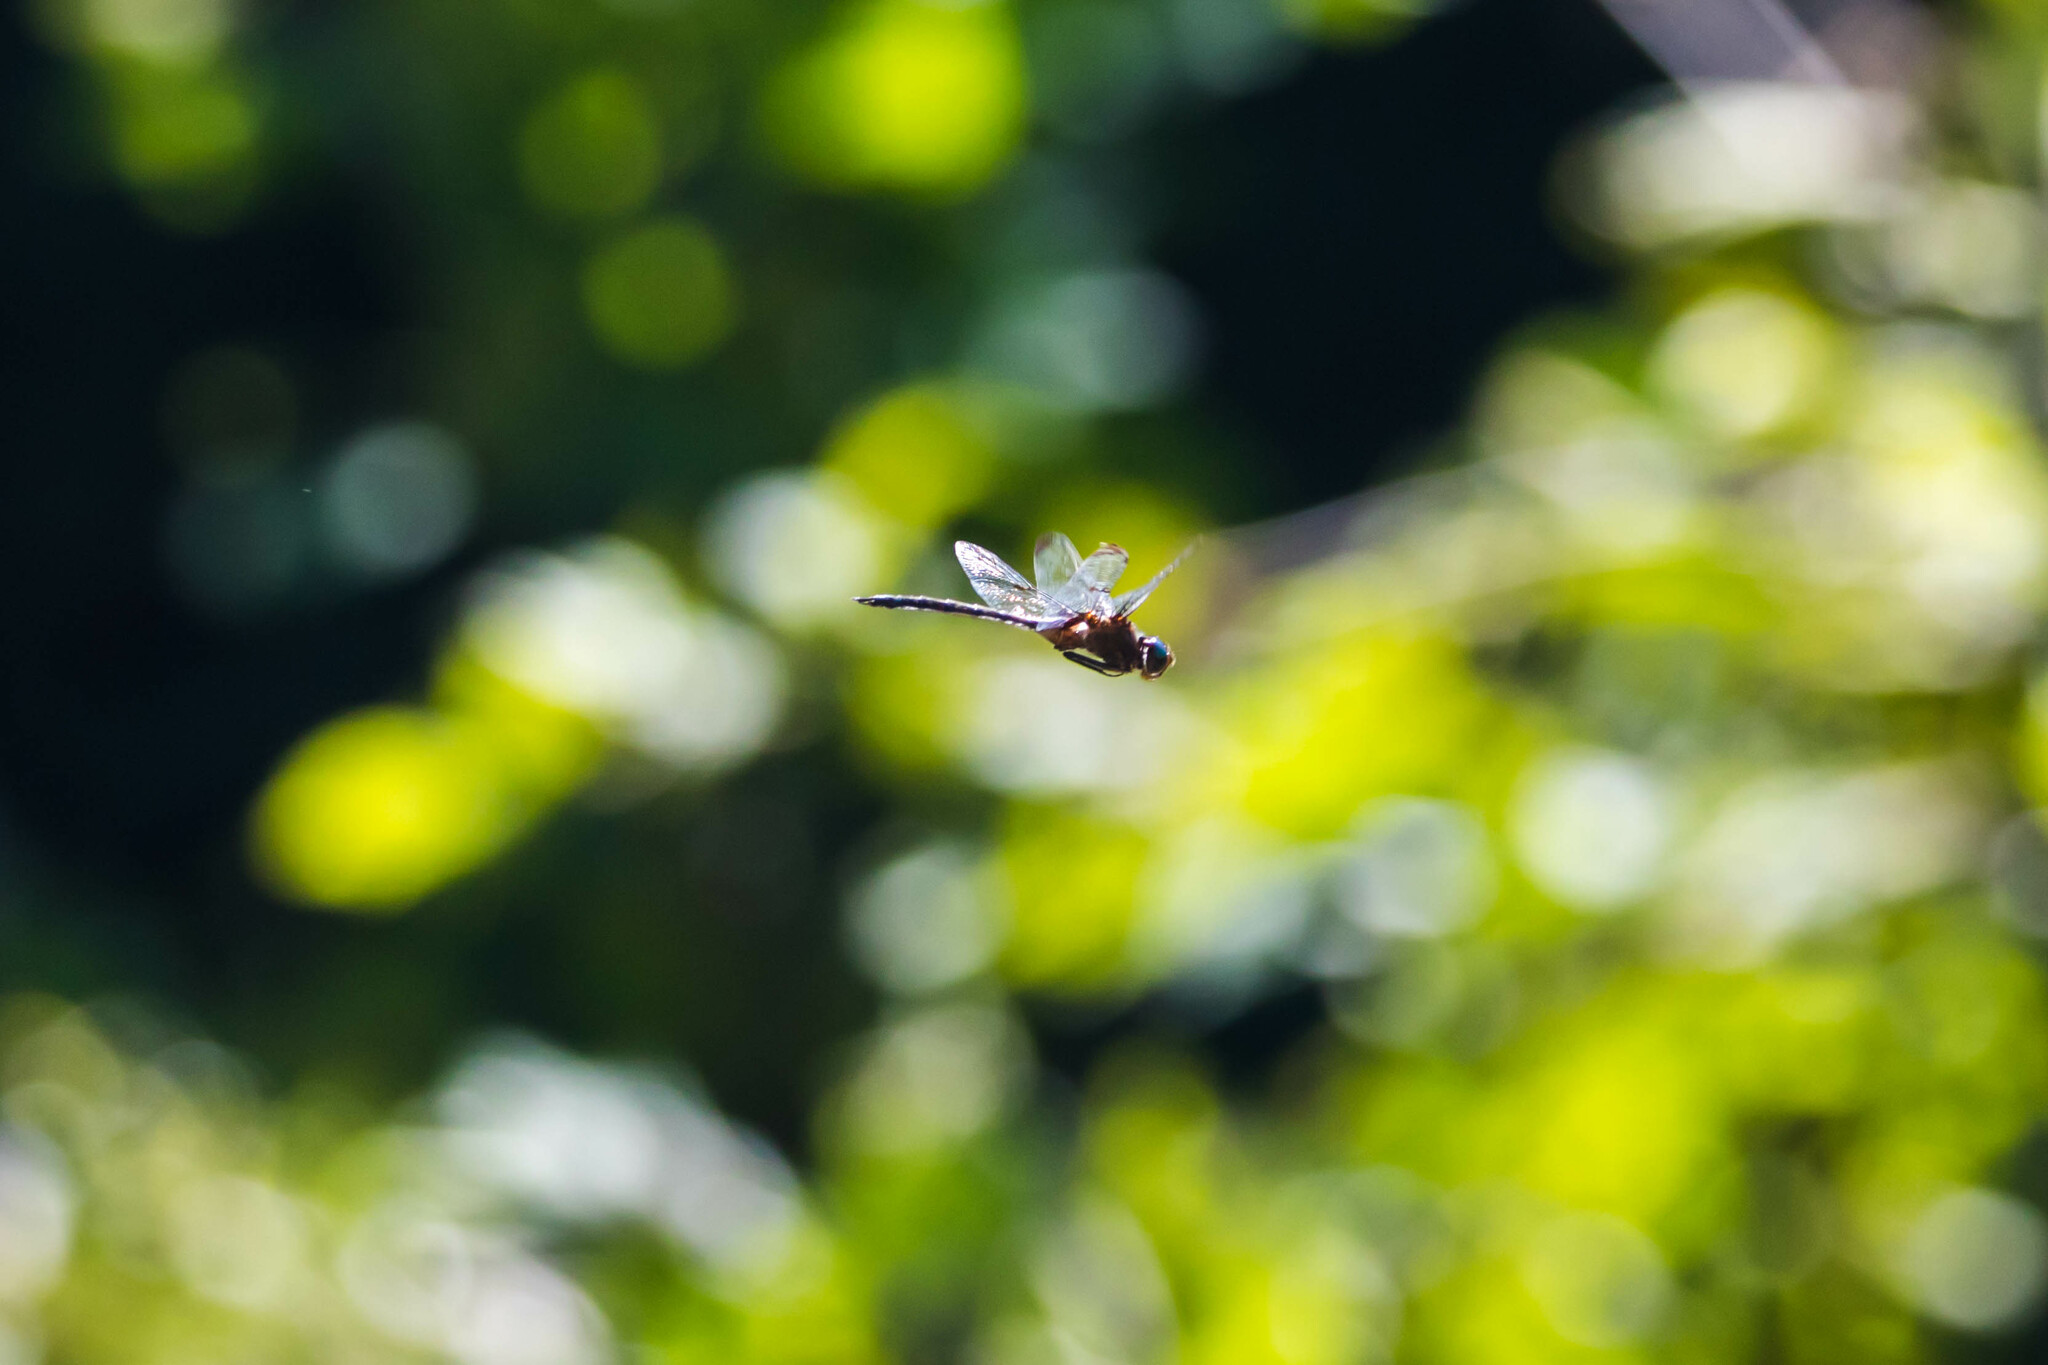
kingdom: Animalia
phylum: Arthropoda
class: Insecta
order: Odonata
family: Corduliidae
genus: Epitheca
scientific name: Epitheca princeps
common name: Prince baskettail
